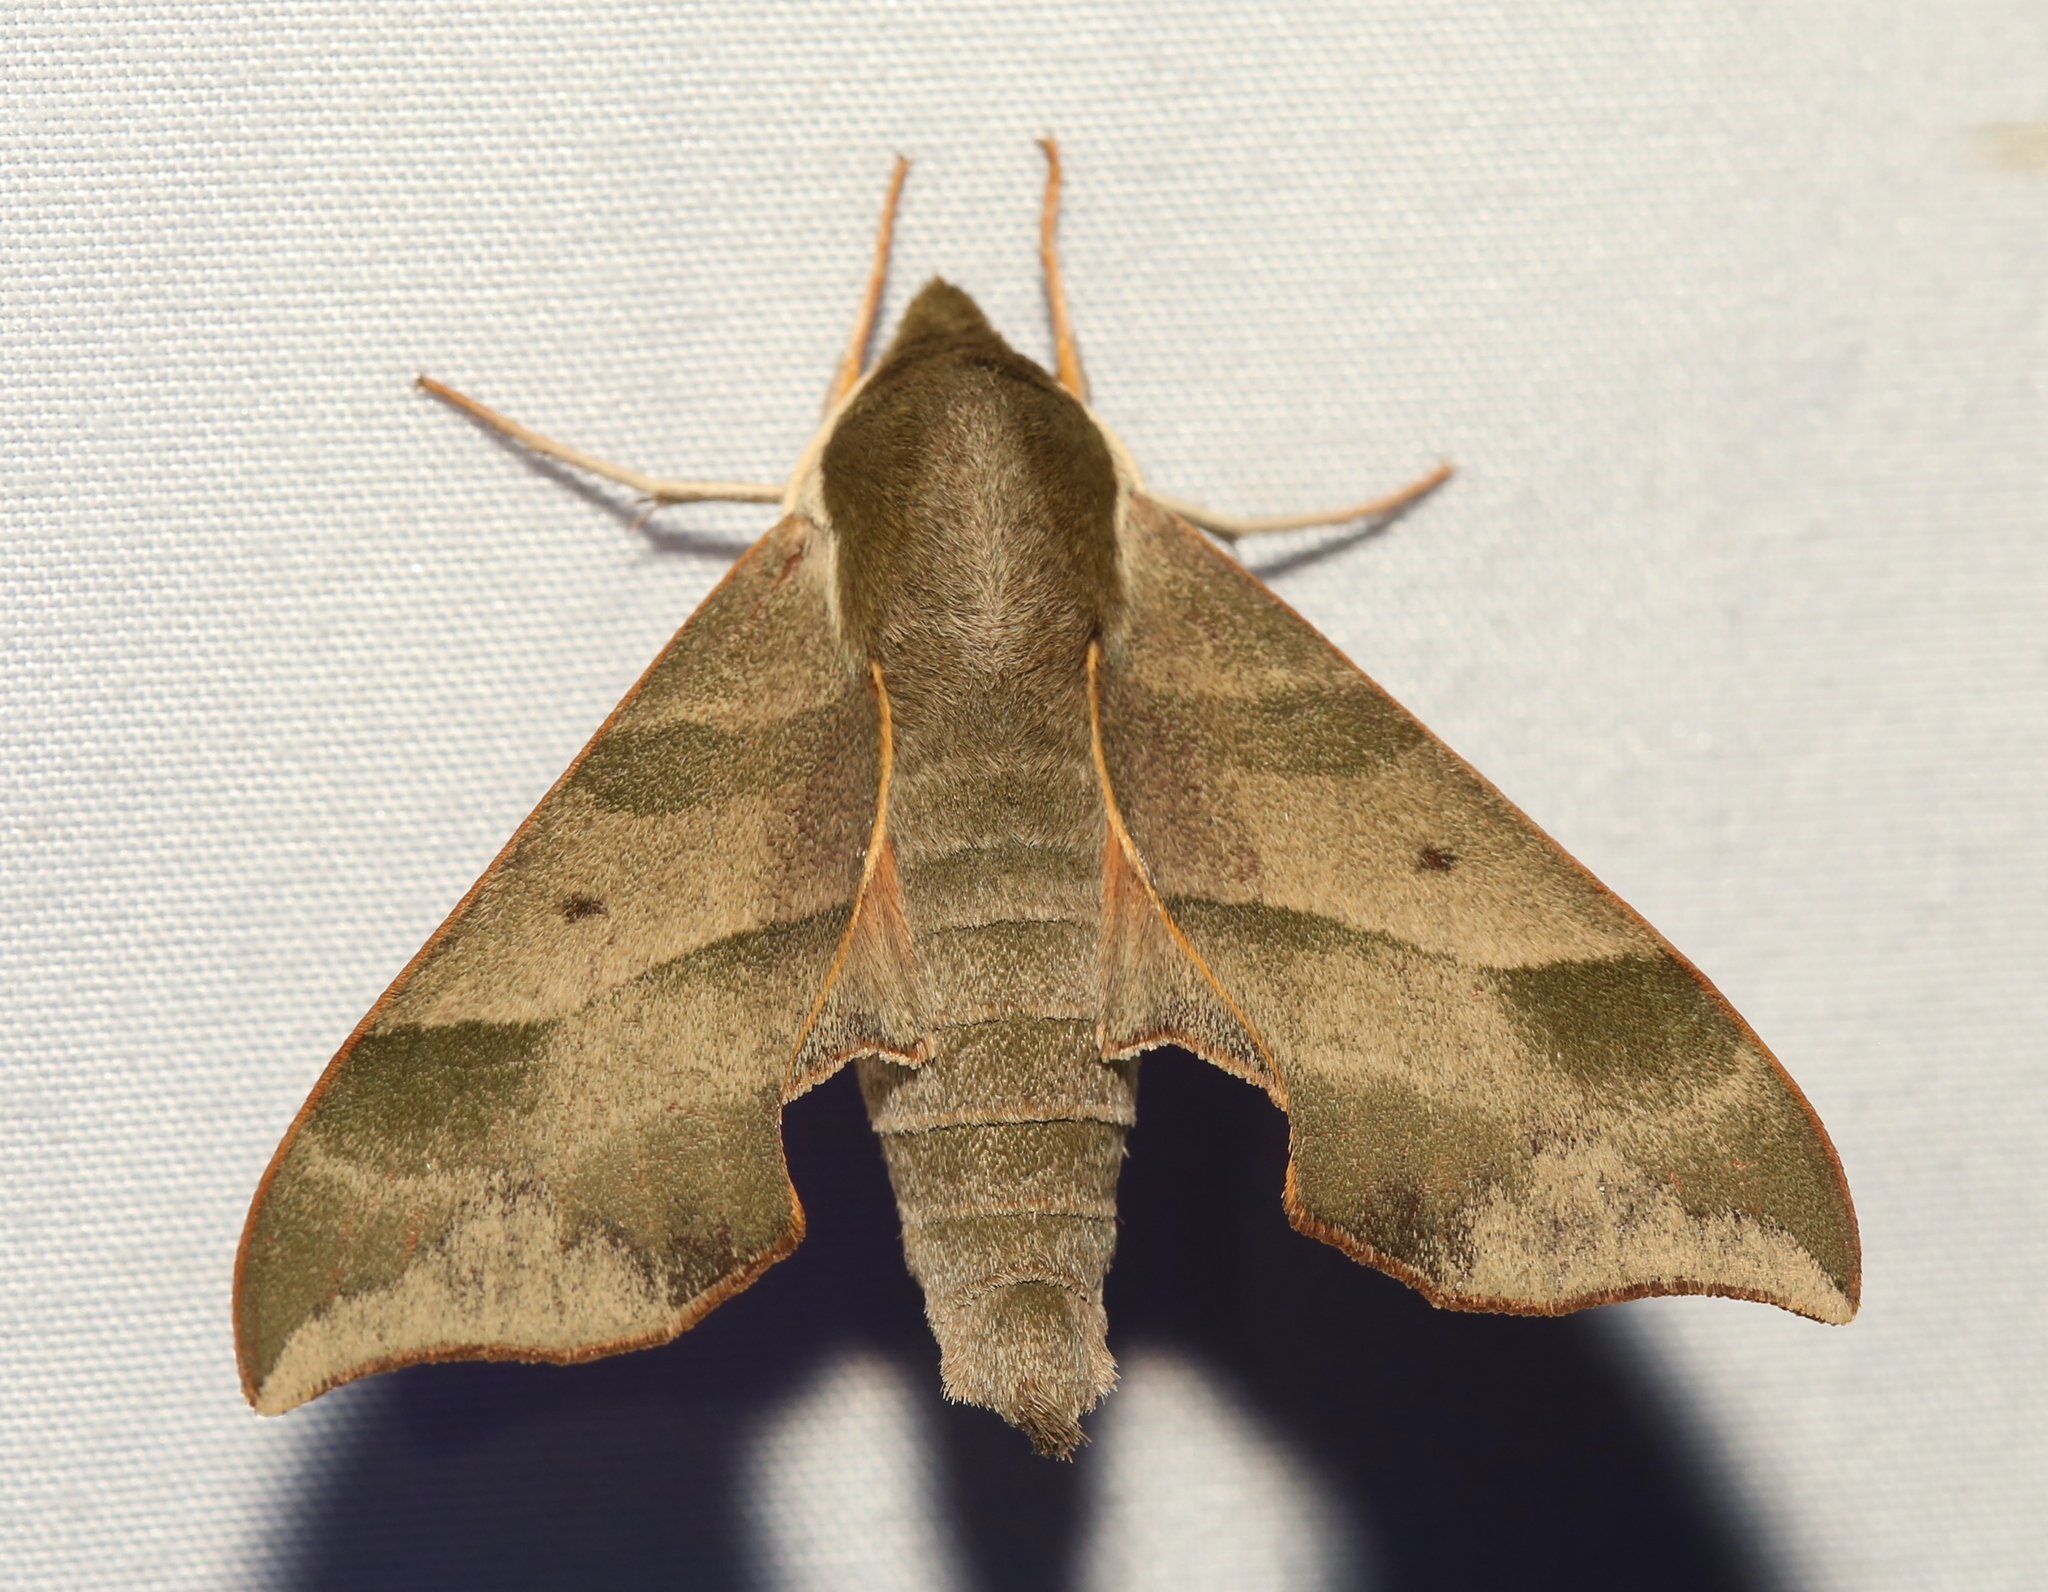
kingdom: Animalia
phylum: Arthropoda
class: Insecta
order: Lepidoptera
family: Sphingidae
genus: Darapsa
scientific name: Darapsa myron
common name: Hog sphinx
